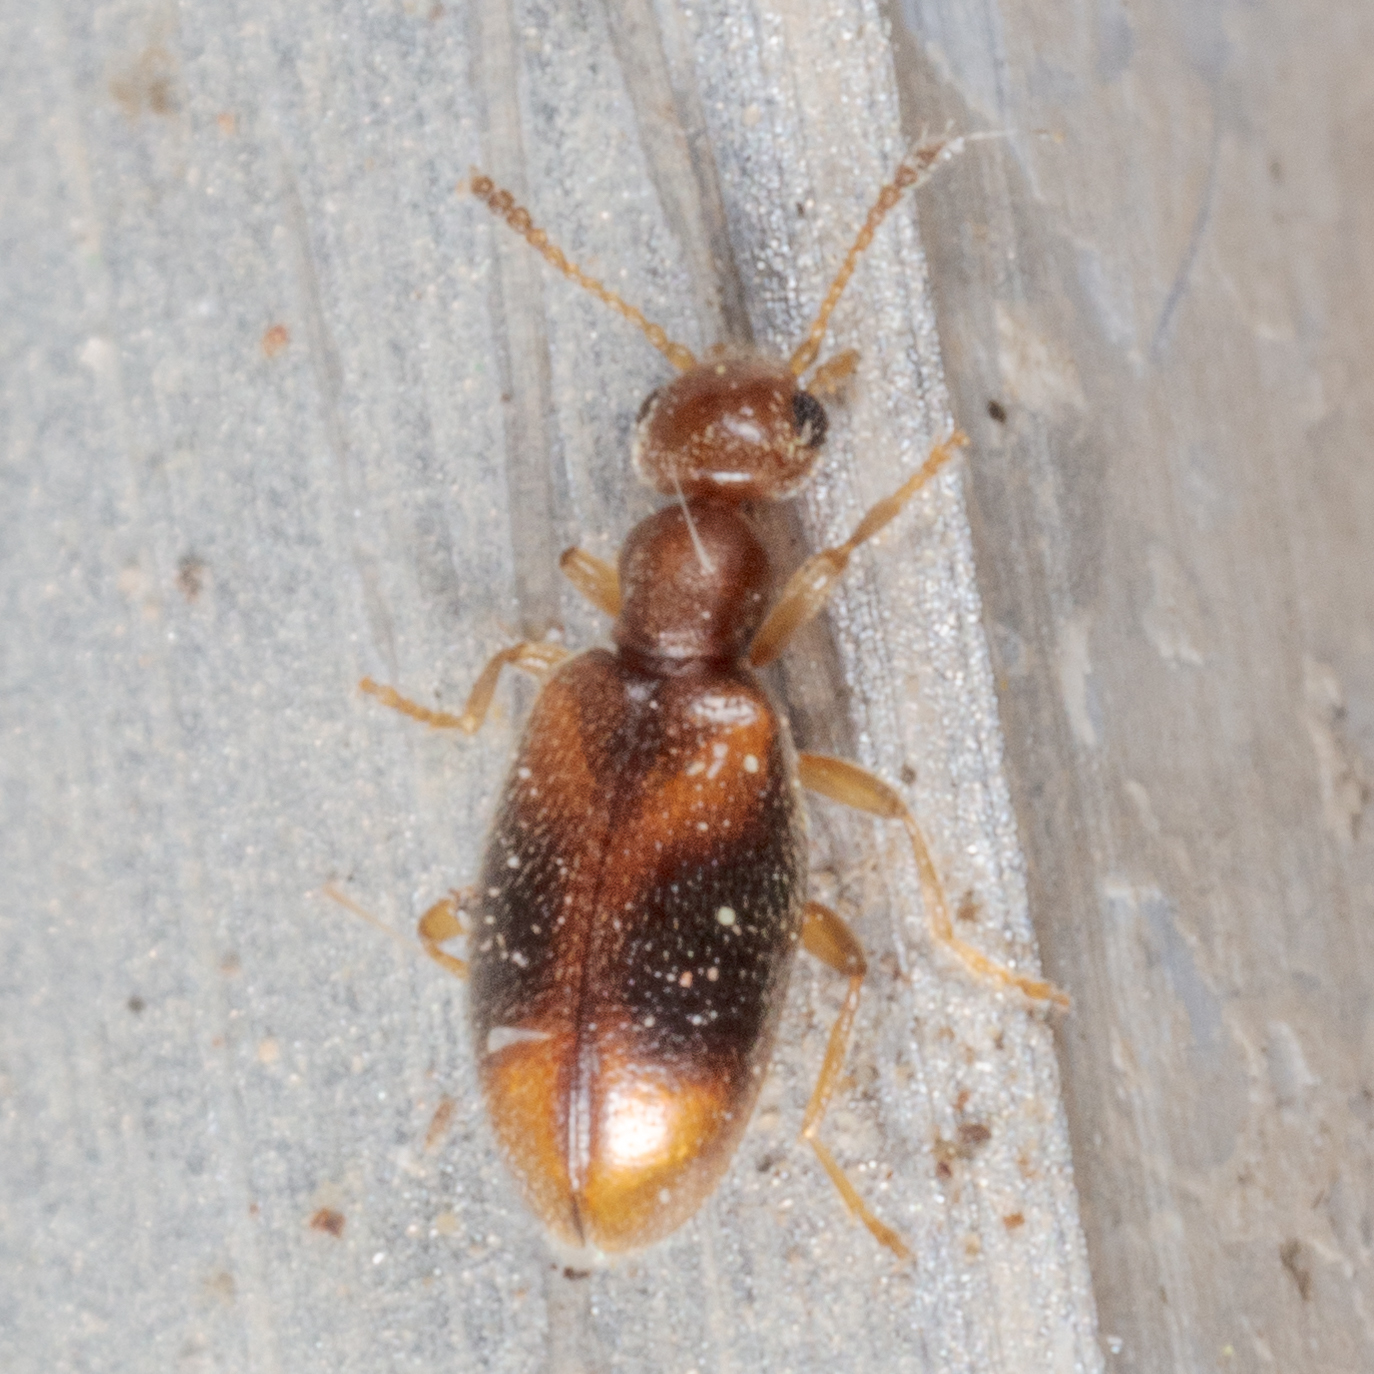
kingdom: Animalia
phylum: Arthropoda
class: Insecta
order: Coleoptera
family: Anthicidae
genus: Sapintus
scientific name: Sapintus lemniscatus
